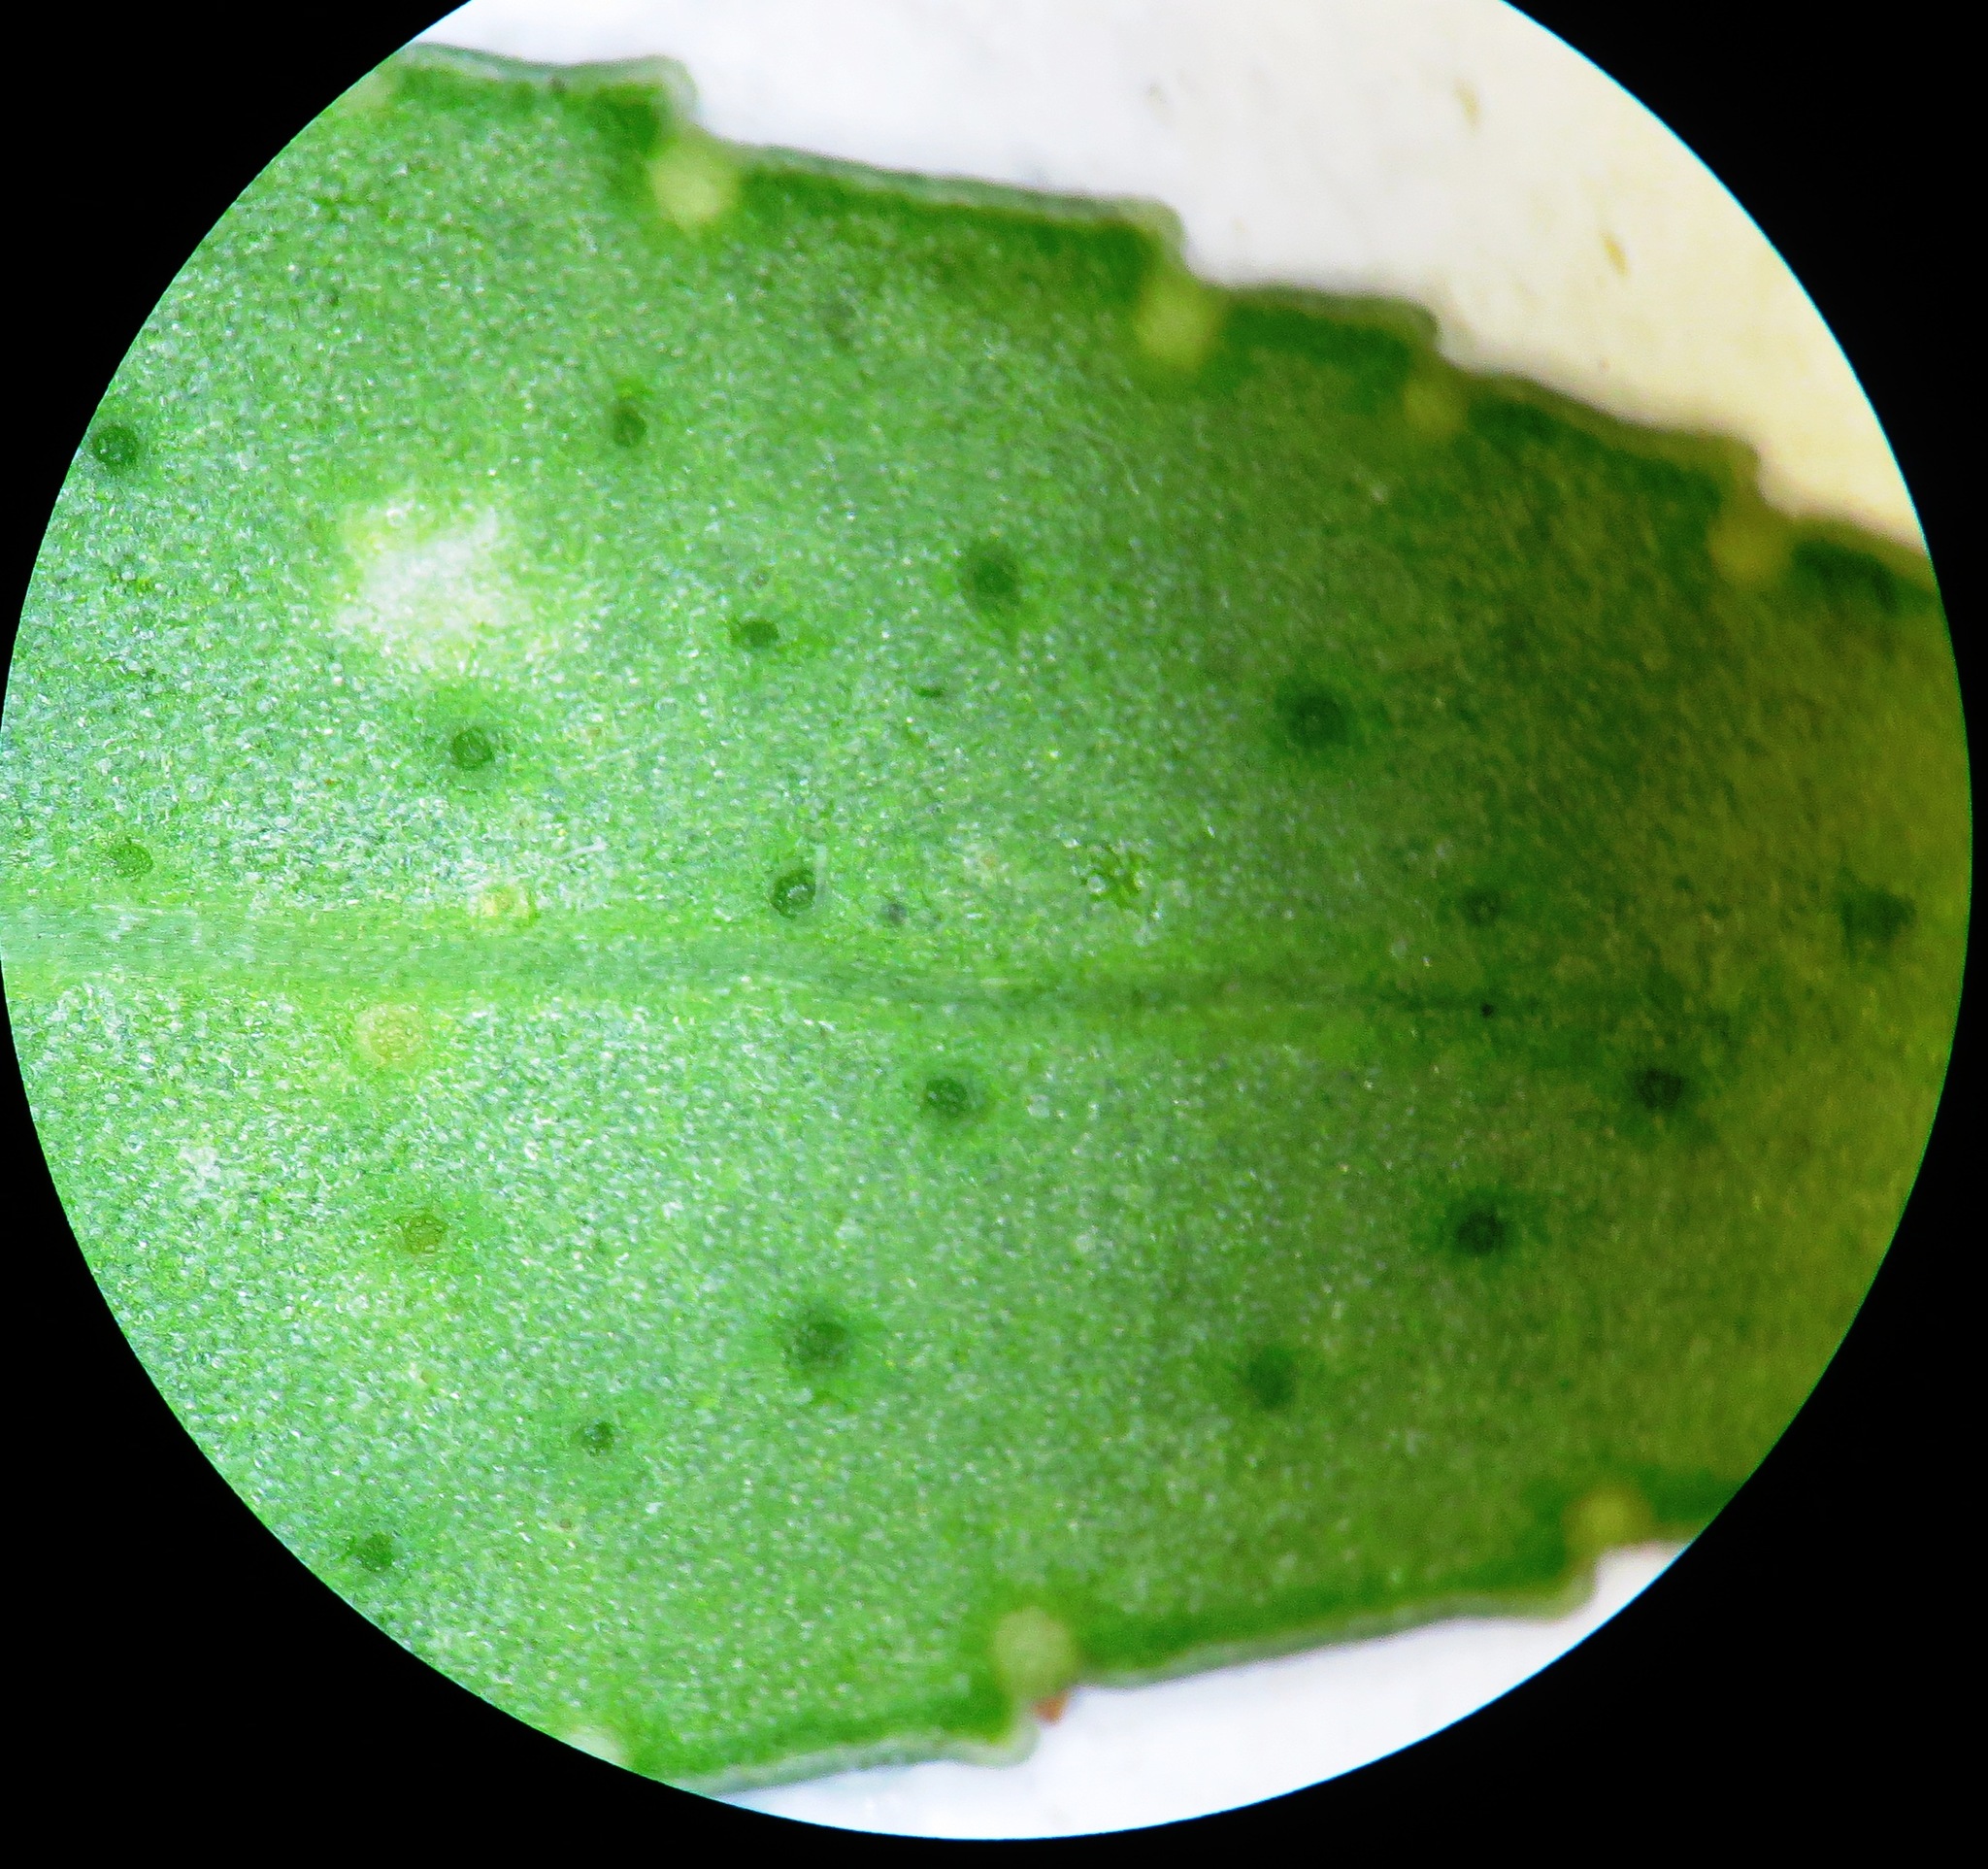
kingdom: Plantae
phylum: Tracheophyta
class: Magnoliopsida
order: Sapindales
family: Rutaceae
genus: Agathosma
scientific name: Agathosma crenulata
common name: Oval buchu
